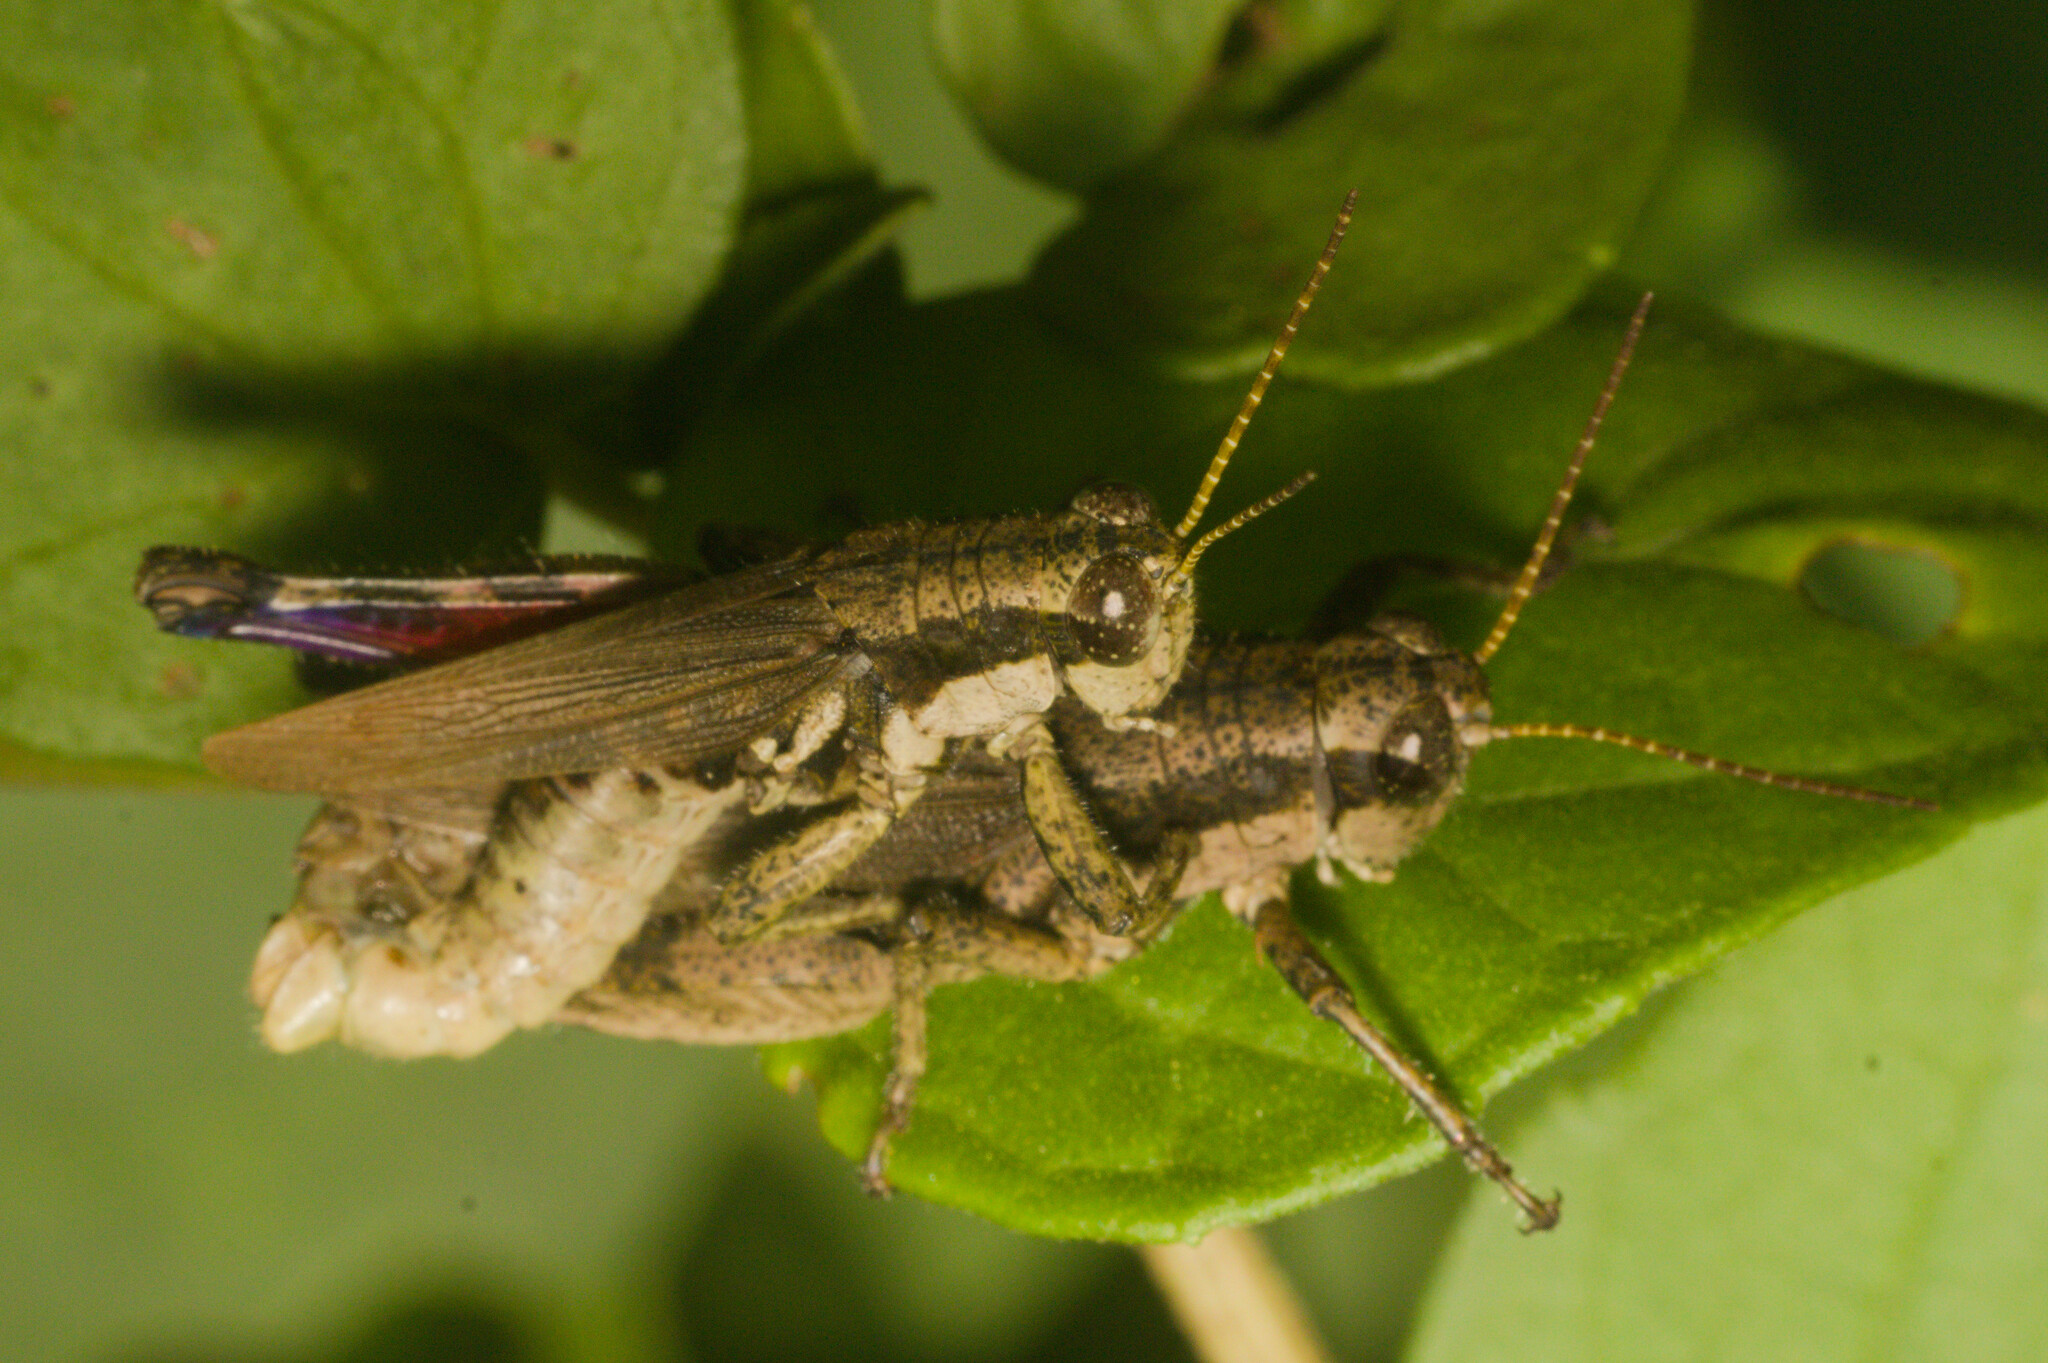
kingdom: Animalia
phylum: Arthropoda
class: Insecta
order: Orthoptera
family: Acrididae
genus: Ronderosia
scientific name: Ronderosia bergii
